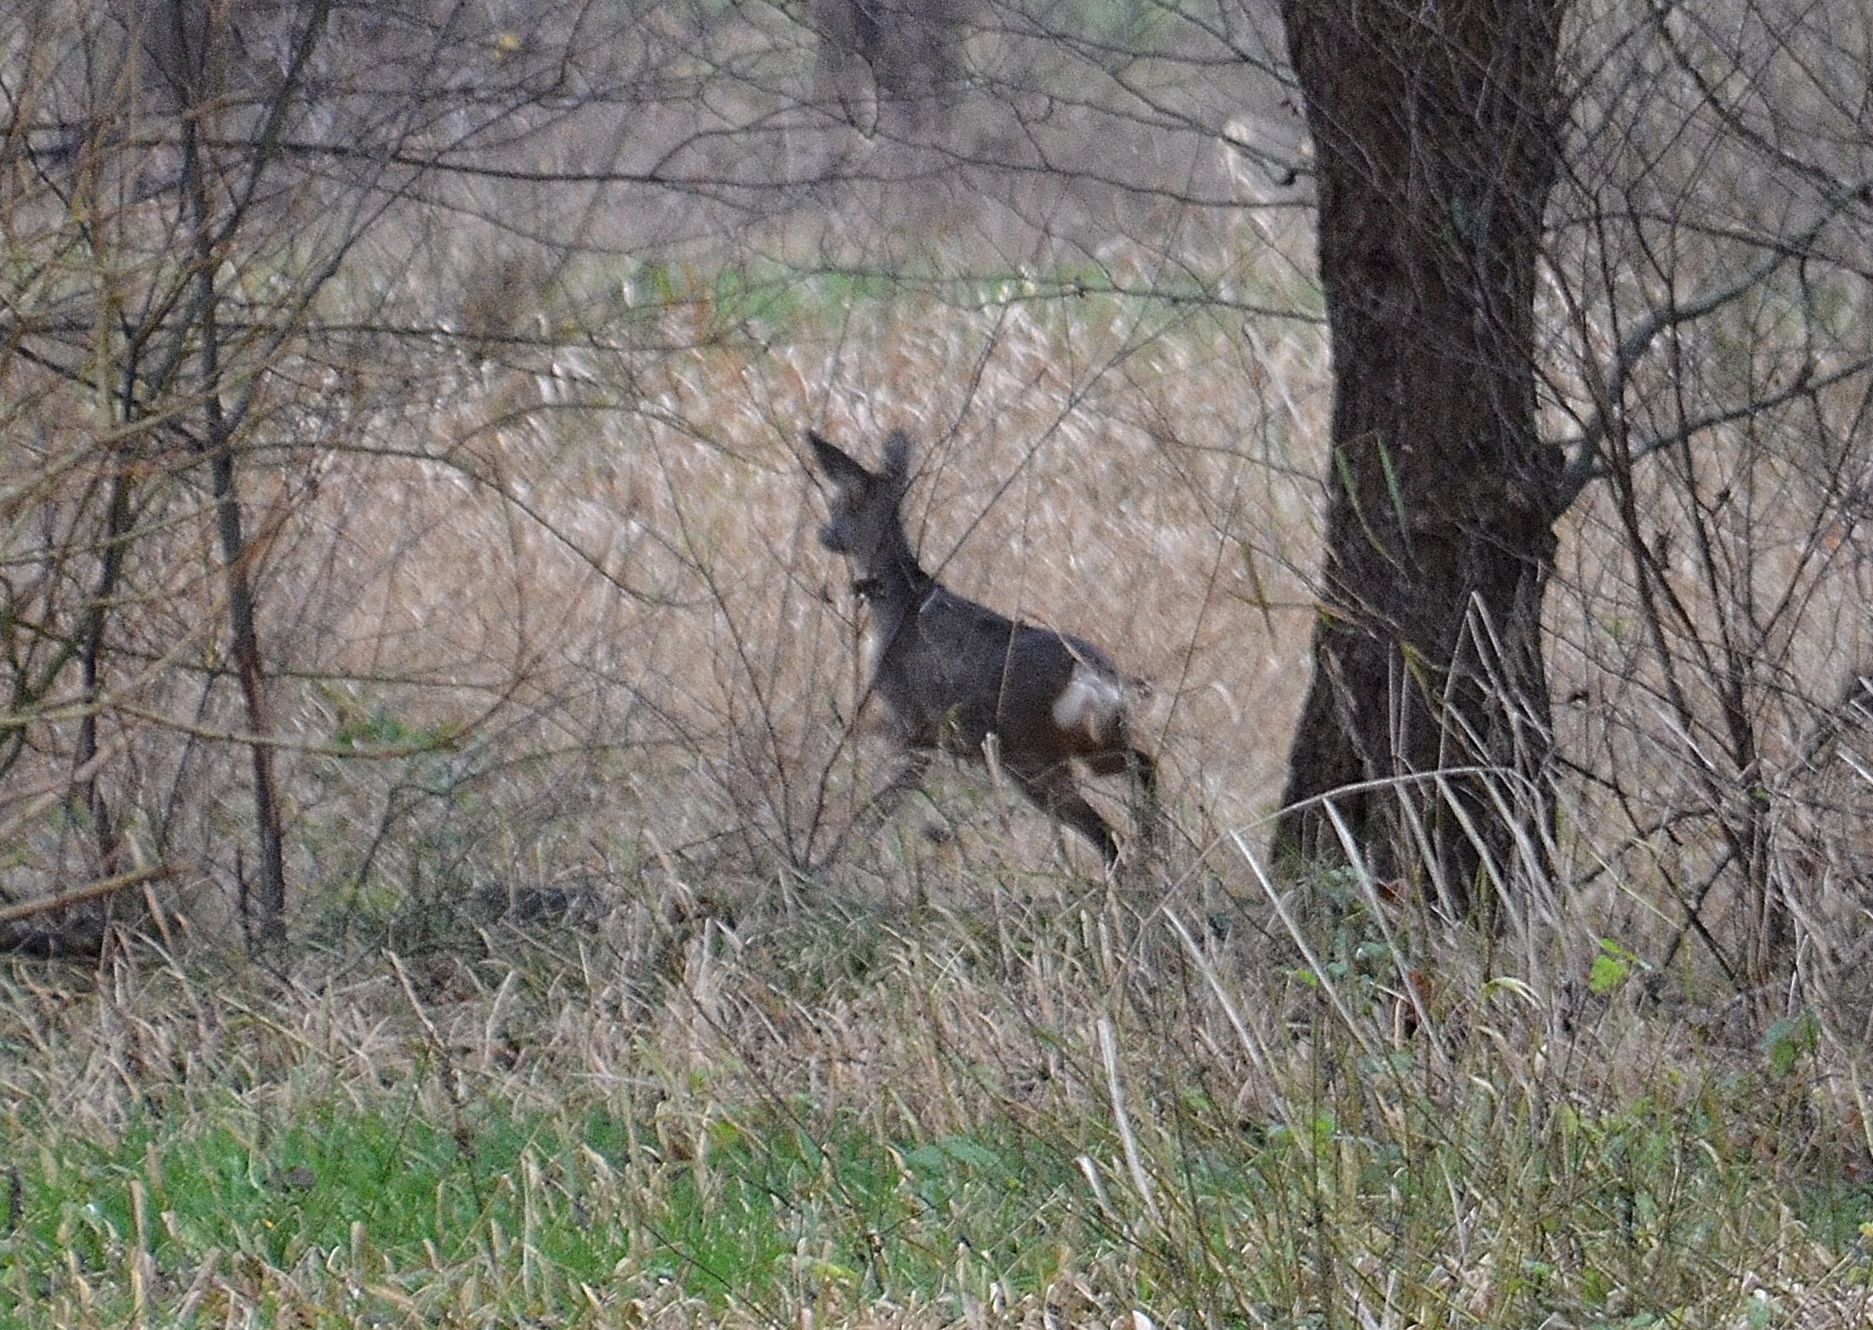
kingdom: Animalia
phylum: Chordata
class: Mammalia
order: Artiodactyla
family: Cervidae
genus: Capreolus
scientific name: Capreolus capreolus
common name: Western roe deer
